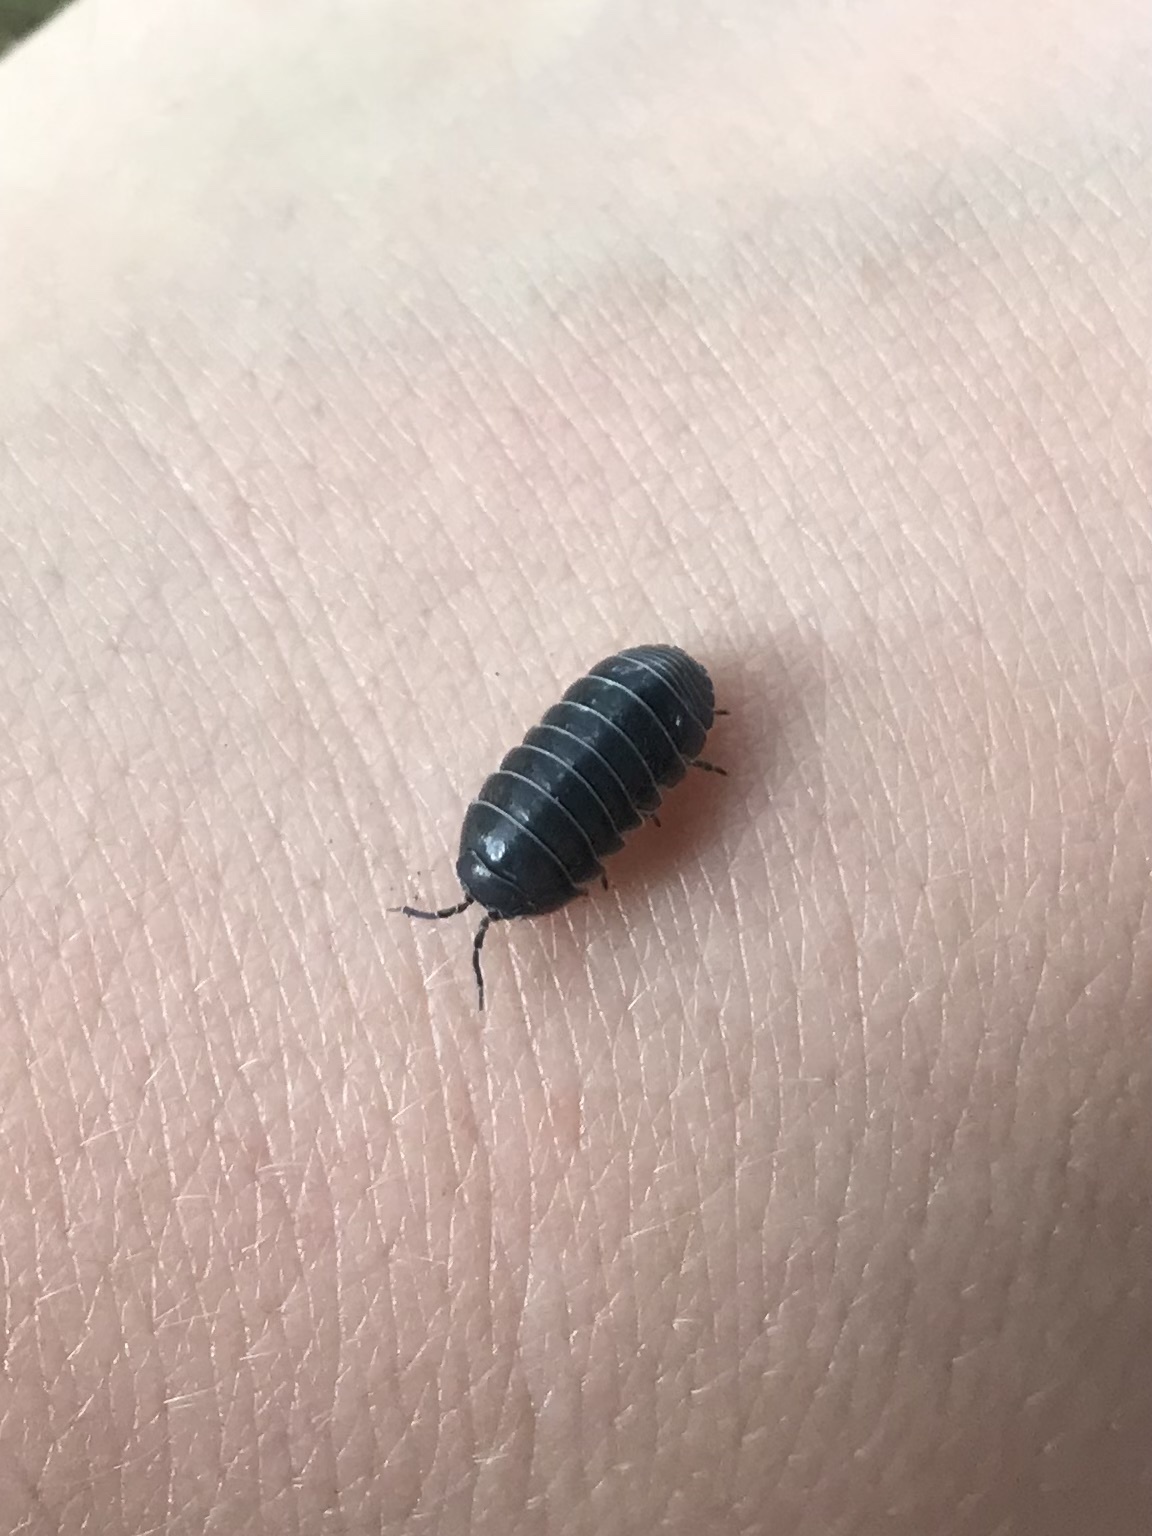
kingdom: Animalia
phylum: Arthropoda
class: Malacostraca
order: Isopoda
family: Armadillidiidae
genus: Armadillidium
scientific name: Armadillidium vulgare
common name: Common pill woodlouse
